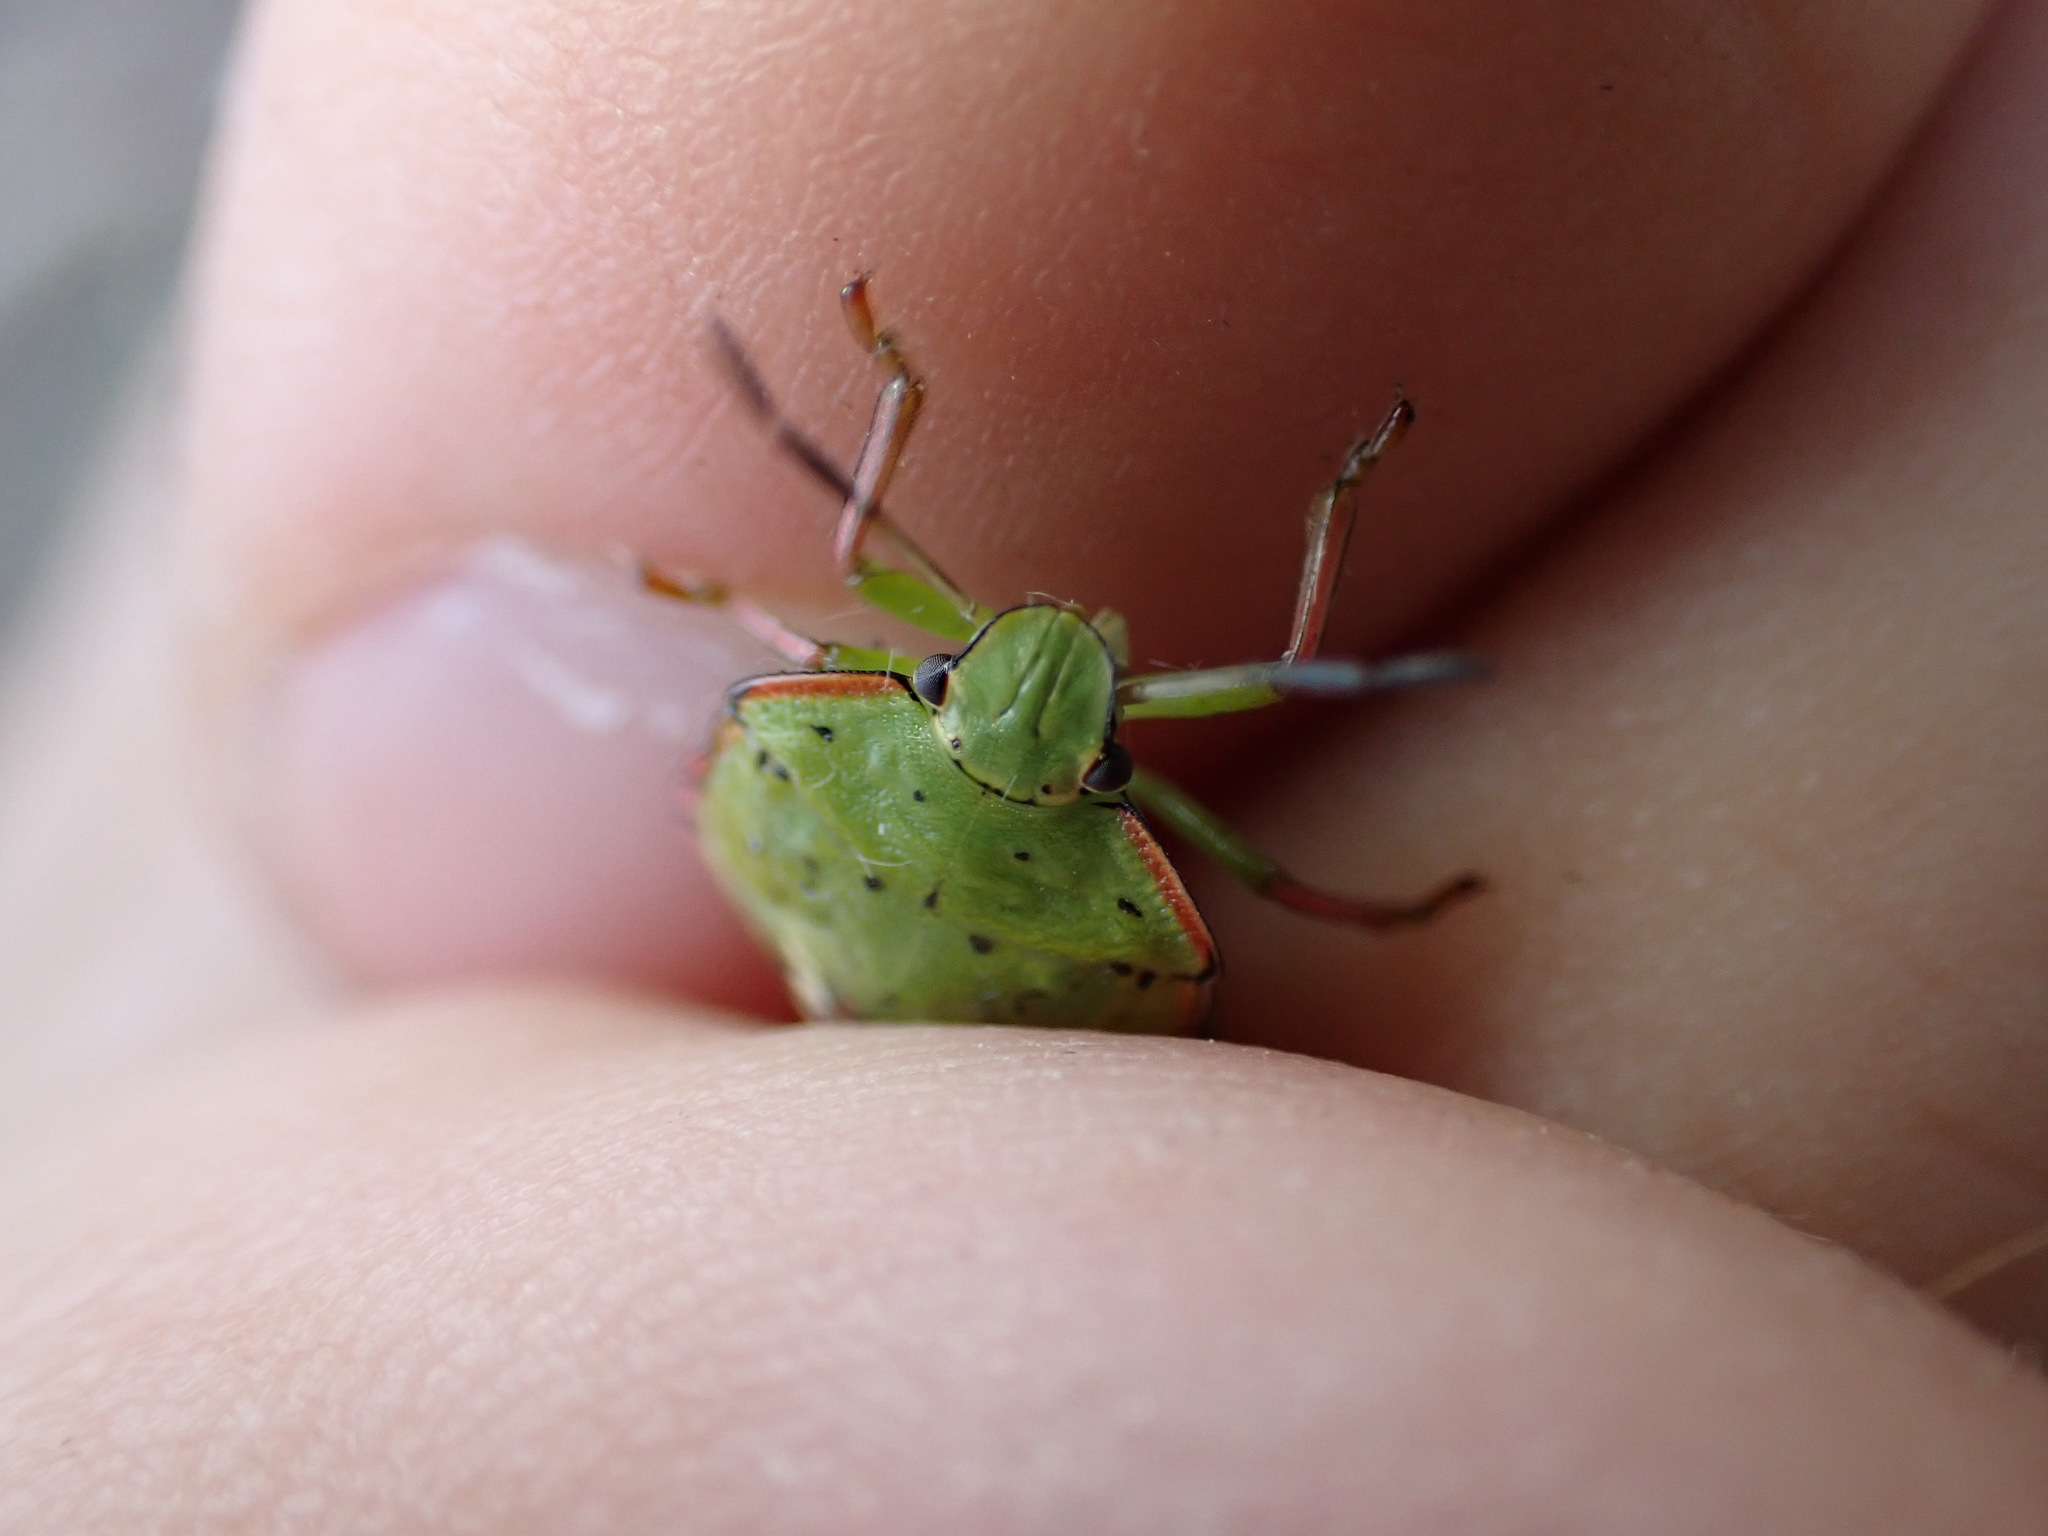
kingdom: Animalia
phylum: Arthropoda
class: Insecta
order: Hemiptera
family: Pentatomidae
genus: Nezara
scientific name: Nezara viridula
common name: Southern green stink bug
